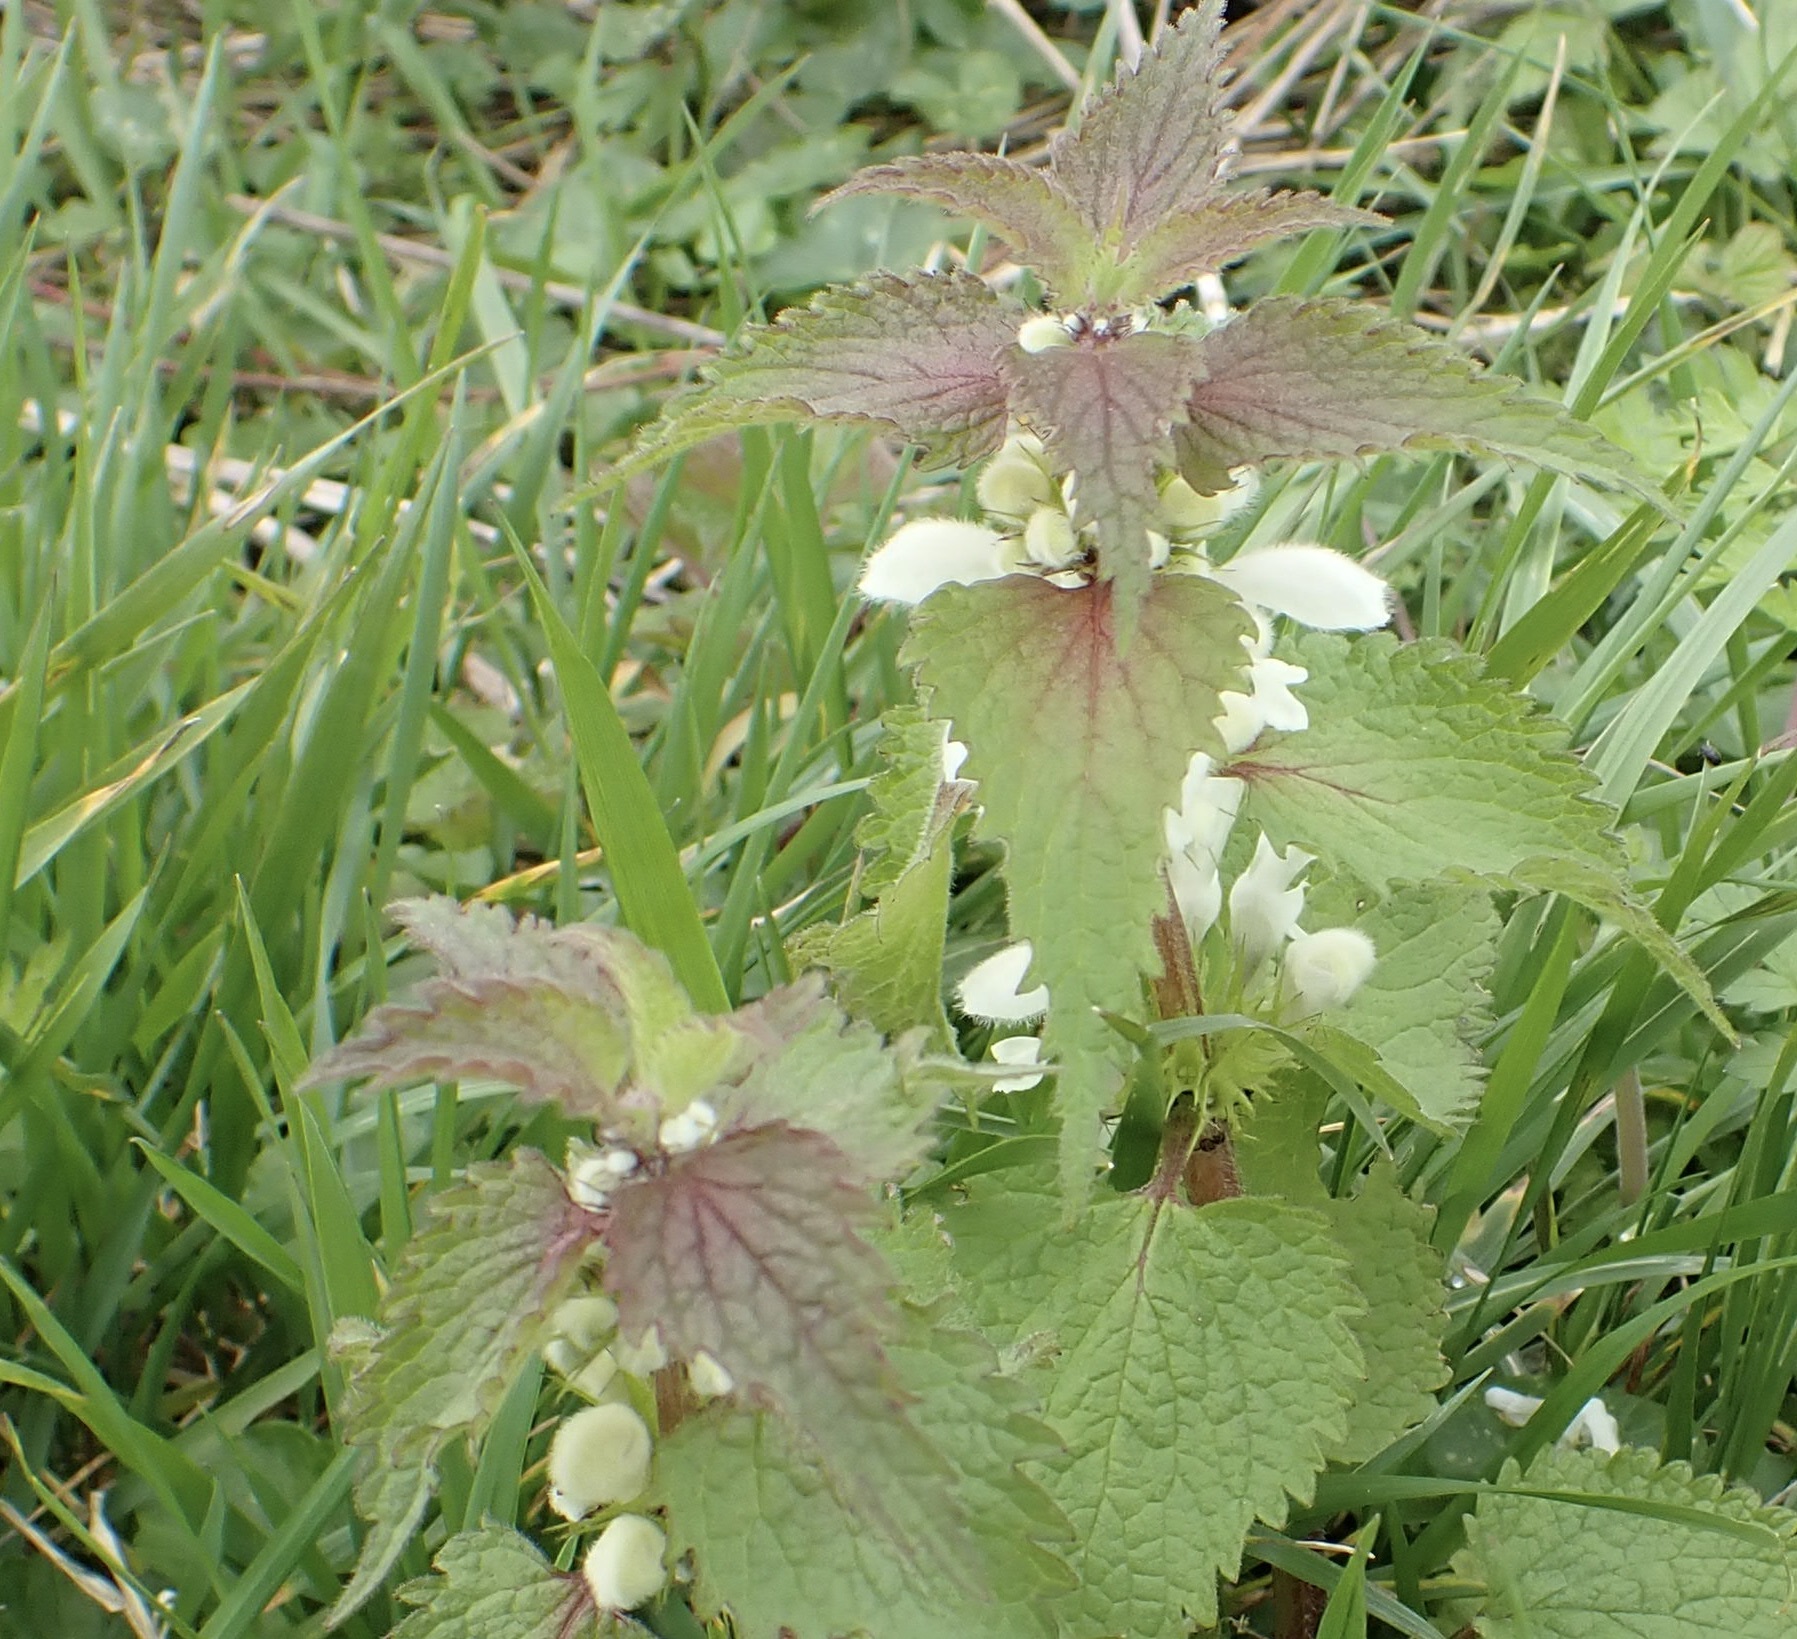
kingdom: Plantae
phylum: Tracheophyta
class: Magnoliopsida
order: Lamiales
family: Lamiaceae
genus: Lamium
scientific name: Lamium album
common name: White dead-nettle
